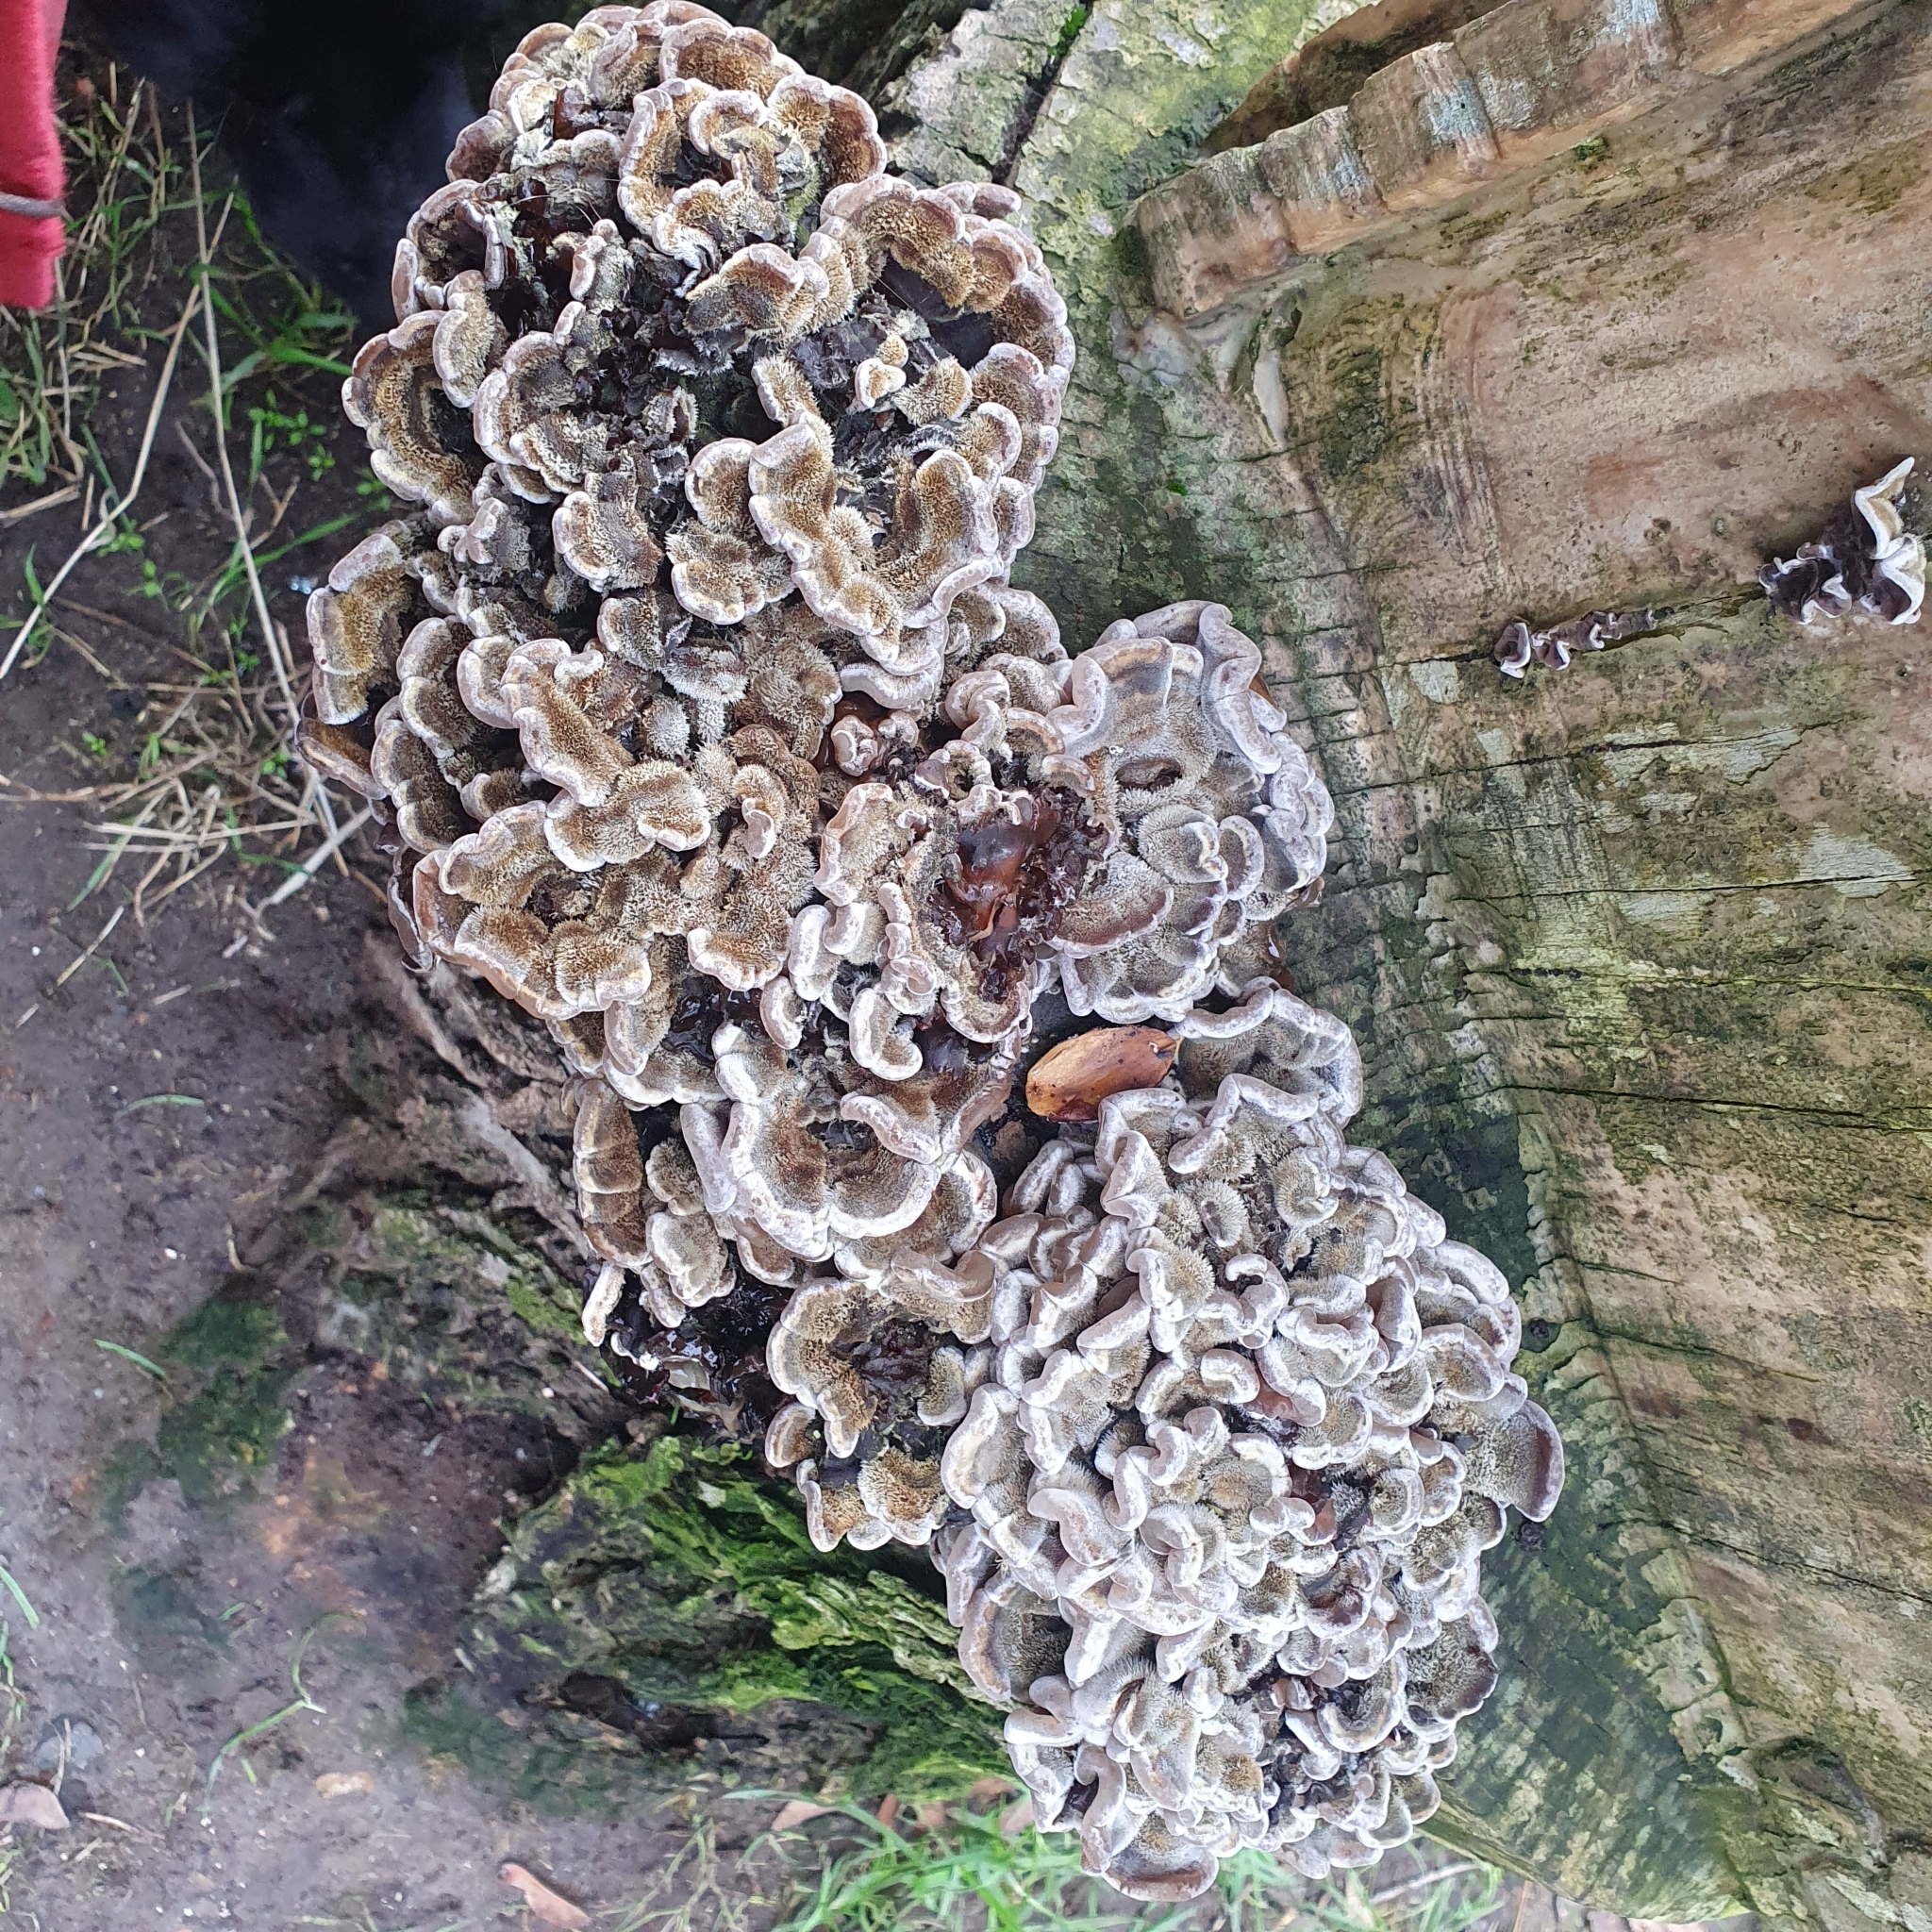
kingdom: Fungi
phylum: Basidiomycota
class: Agaricomycetes
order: Auriculariales
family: Auriculariaceae
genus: Auricularia
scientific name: Auricularia mesenterica
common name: Tripe fungus
